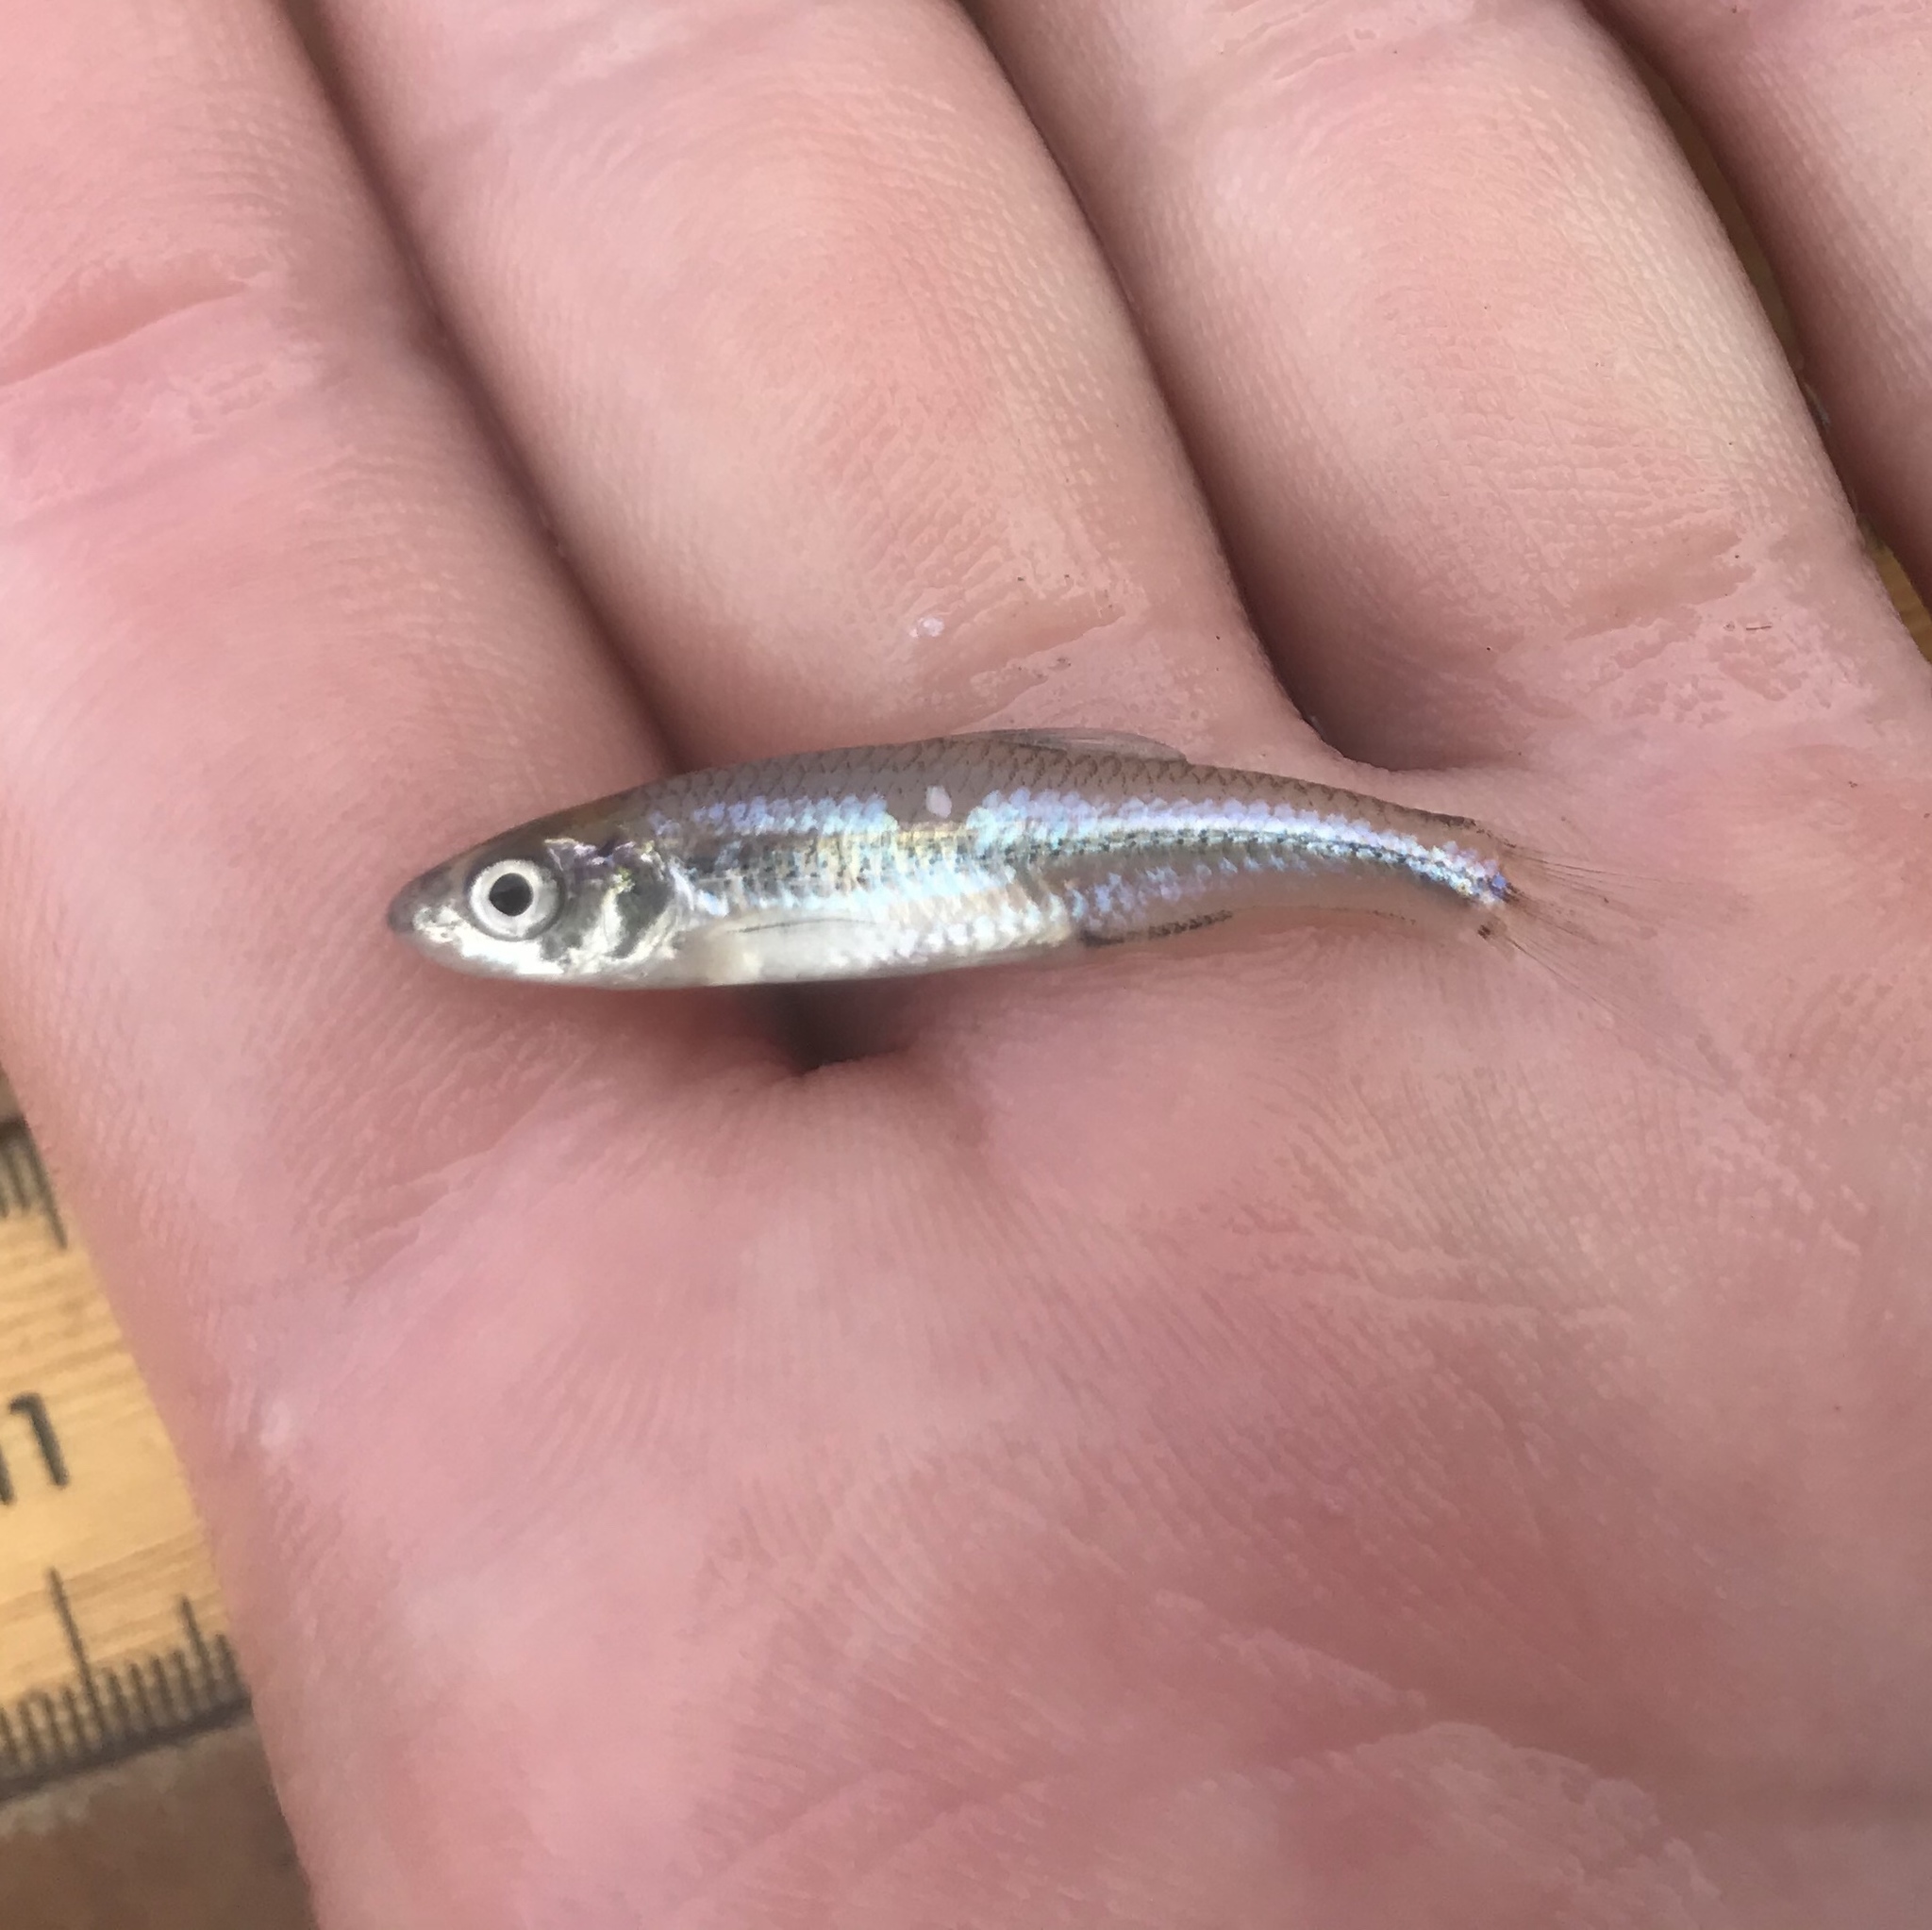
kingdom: Animalia
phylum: Chordata
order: Cypriniformes
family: Cyprinidae
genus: Notropis
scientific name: Notropis
